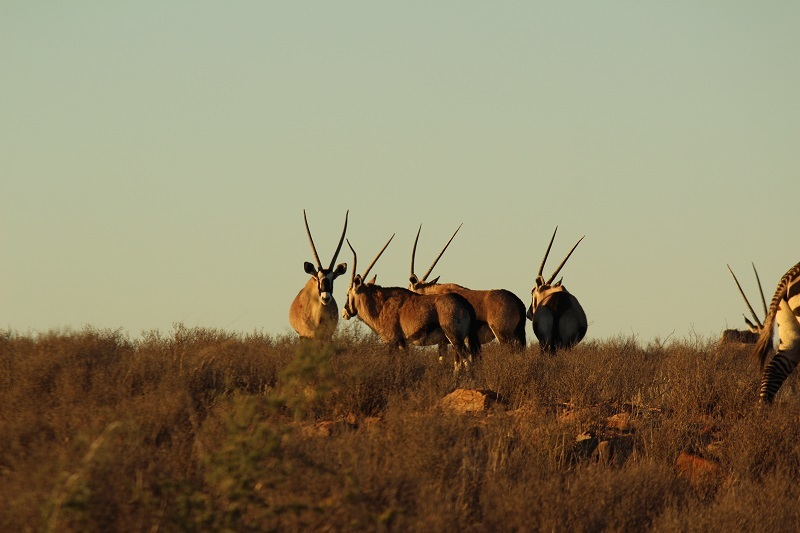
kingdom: Animalia
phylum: Chordata
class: Mammalia
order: Artiodactyla
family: Bovidae
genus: Oryx
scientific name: Oryx gazella
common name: Gemsbok
